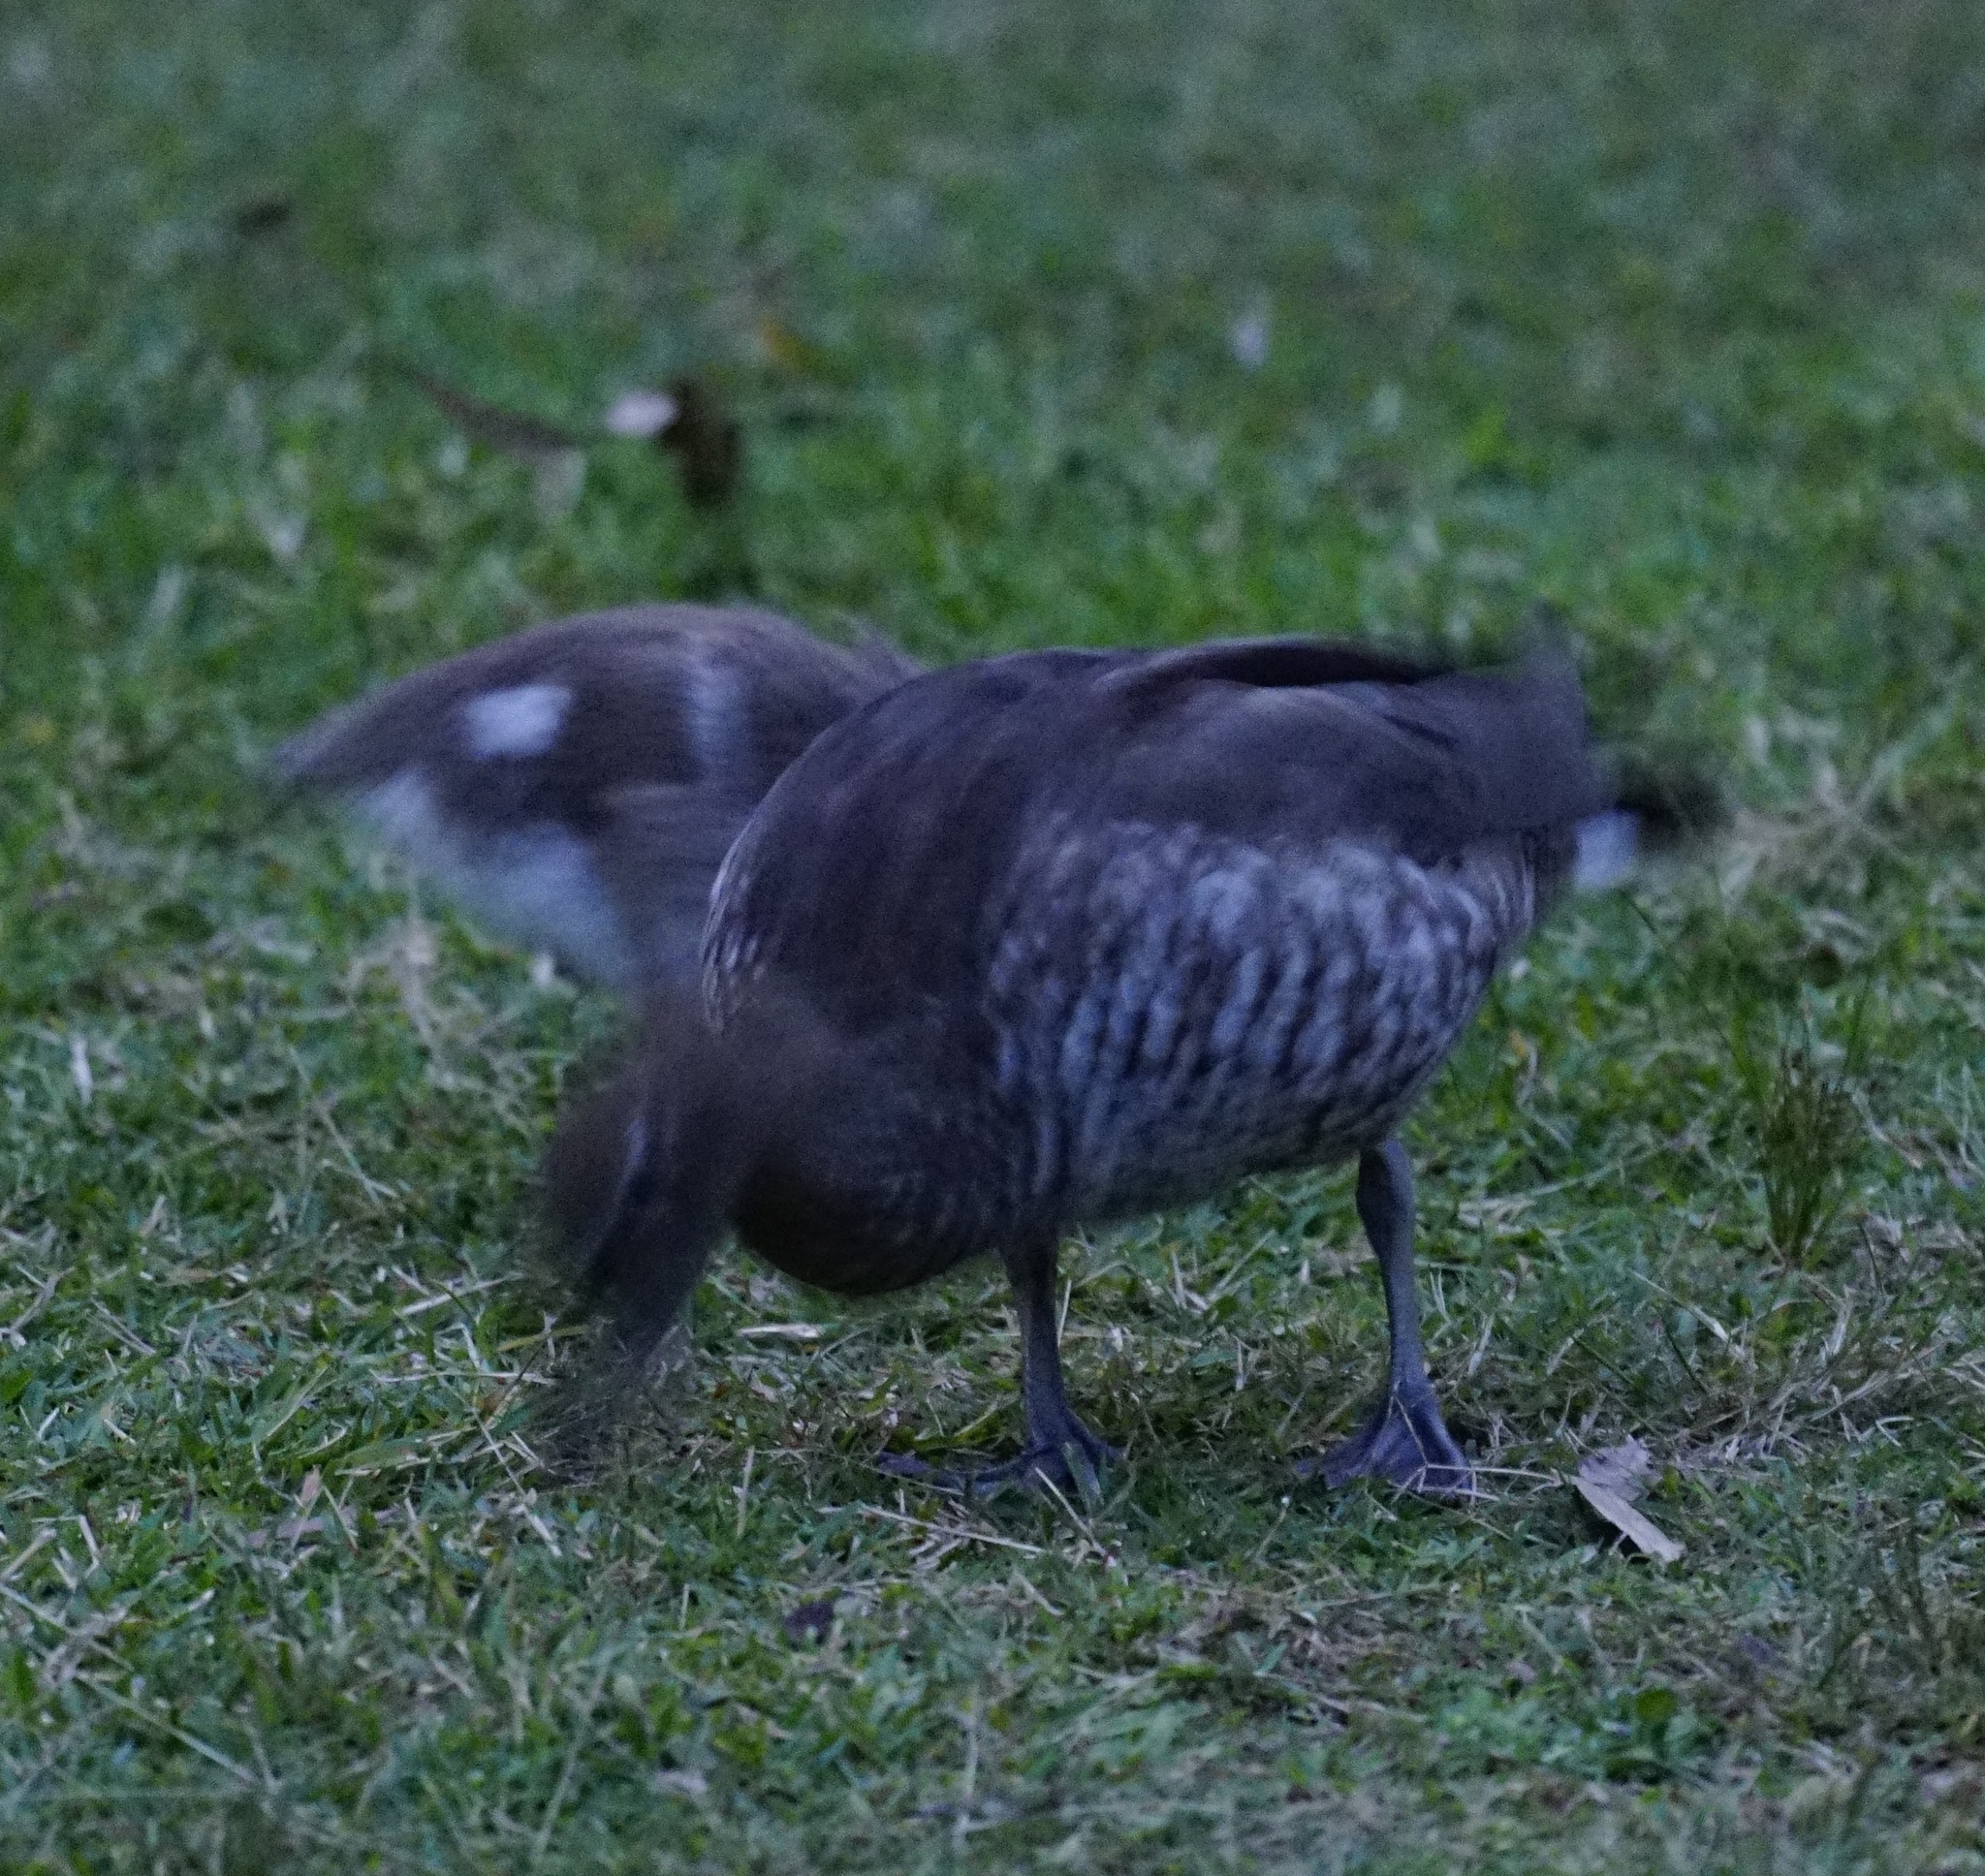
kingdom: Animalia
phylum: Chordata
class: Aves
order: Anseriformes
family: Anatidae
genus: Chenonetta
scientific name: Chenonetta jubata
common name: Maned duck
